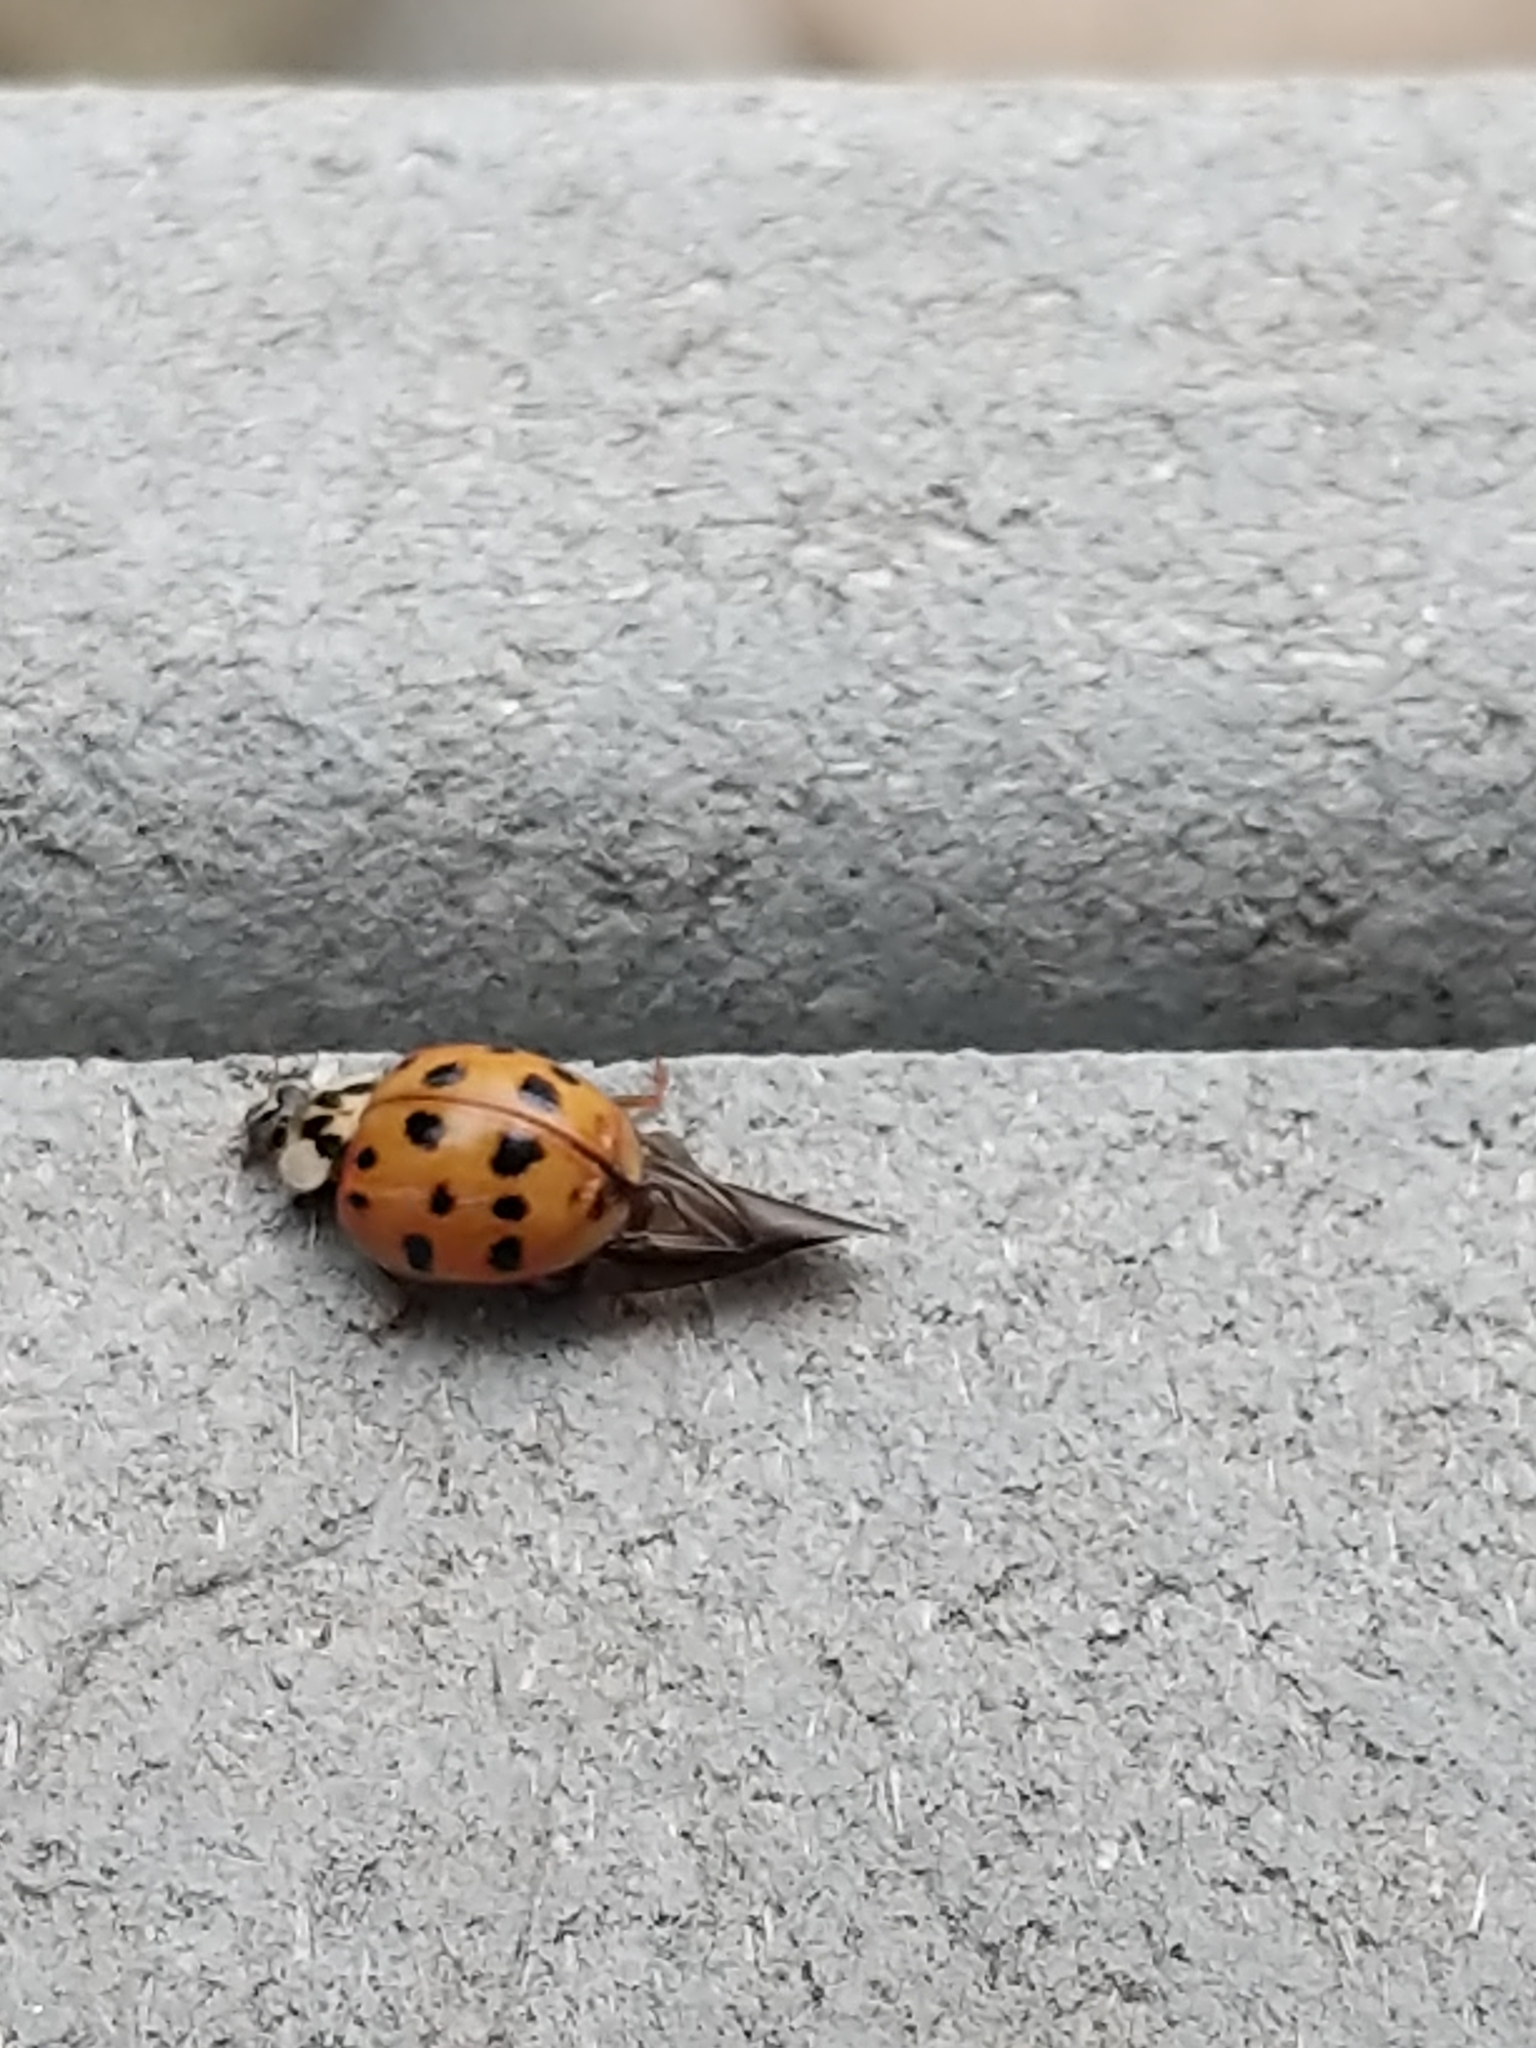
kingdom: Animalia
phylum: Arthropoda
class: Insecta
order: Coleoptera
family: Coccinellidae
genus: Harmonia
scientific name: Harmonia axyridis
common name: Harlequin ladybird
